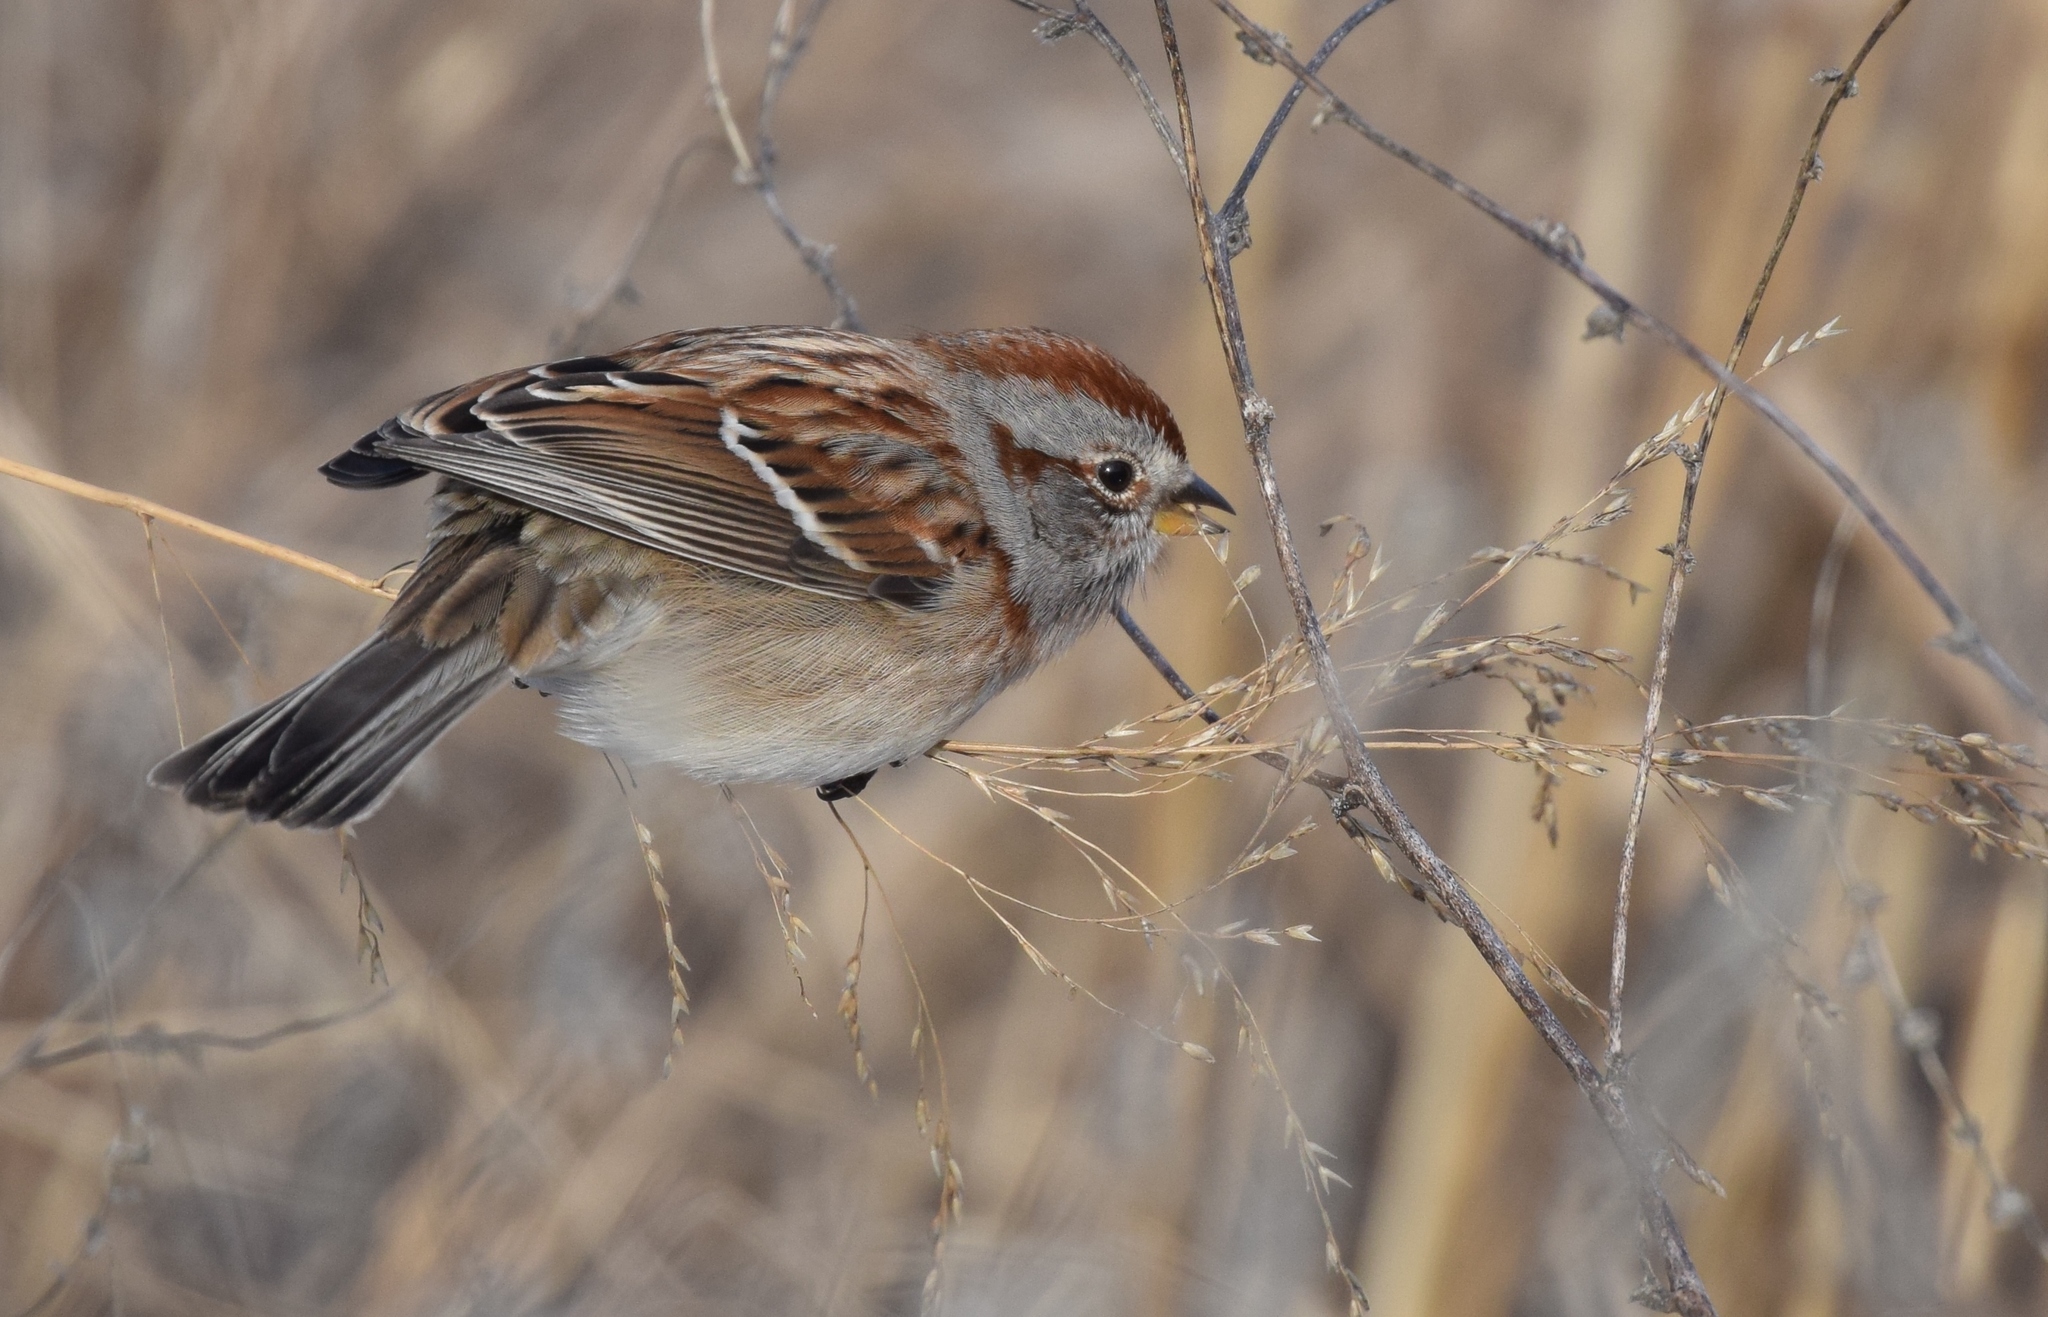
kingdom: Animalia
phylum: Chordata
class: Aves
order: Passeriformes
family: Passerellidae
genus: Spizelloides
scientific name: Spizelloides arborea
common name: American tree sparrow
